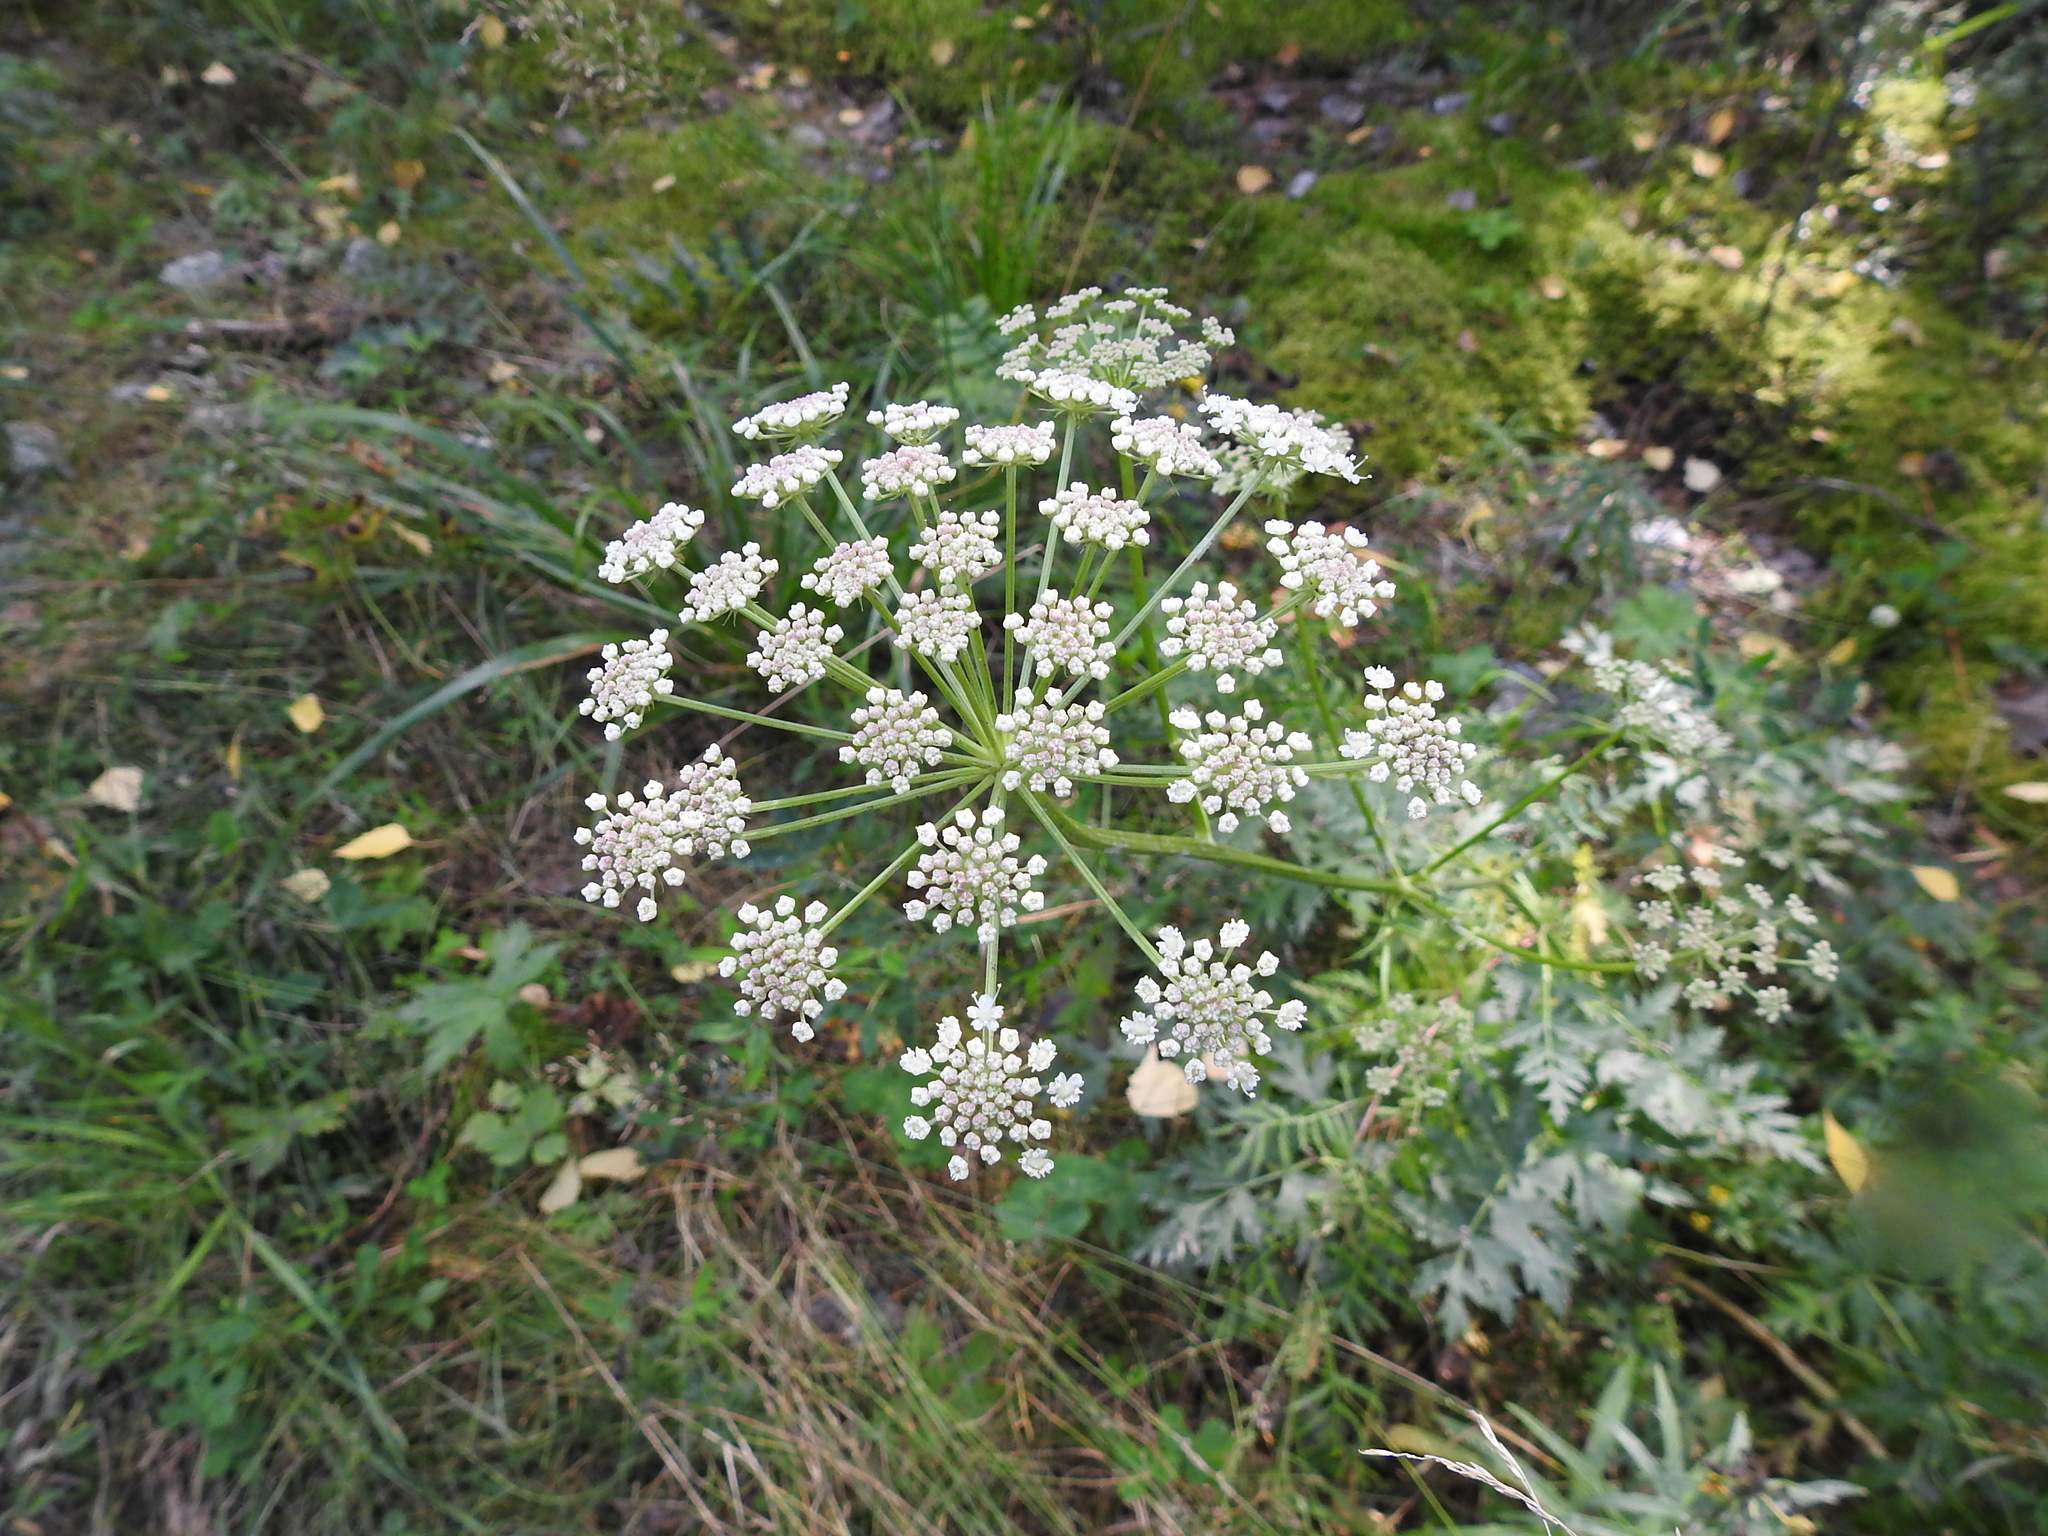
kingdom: Plantae
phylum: Tracheophyta
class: Magnoliopsida
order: Apiales
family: Apiaceae
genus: Seseli
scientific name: Seseli krylovii
